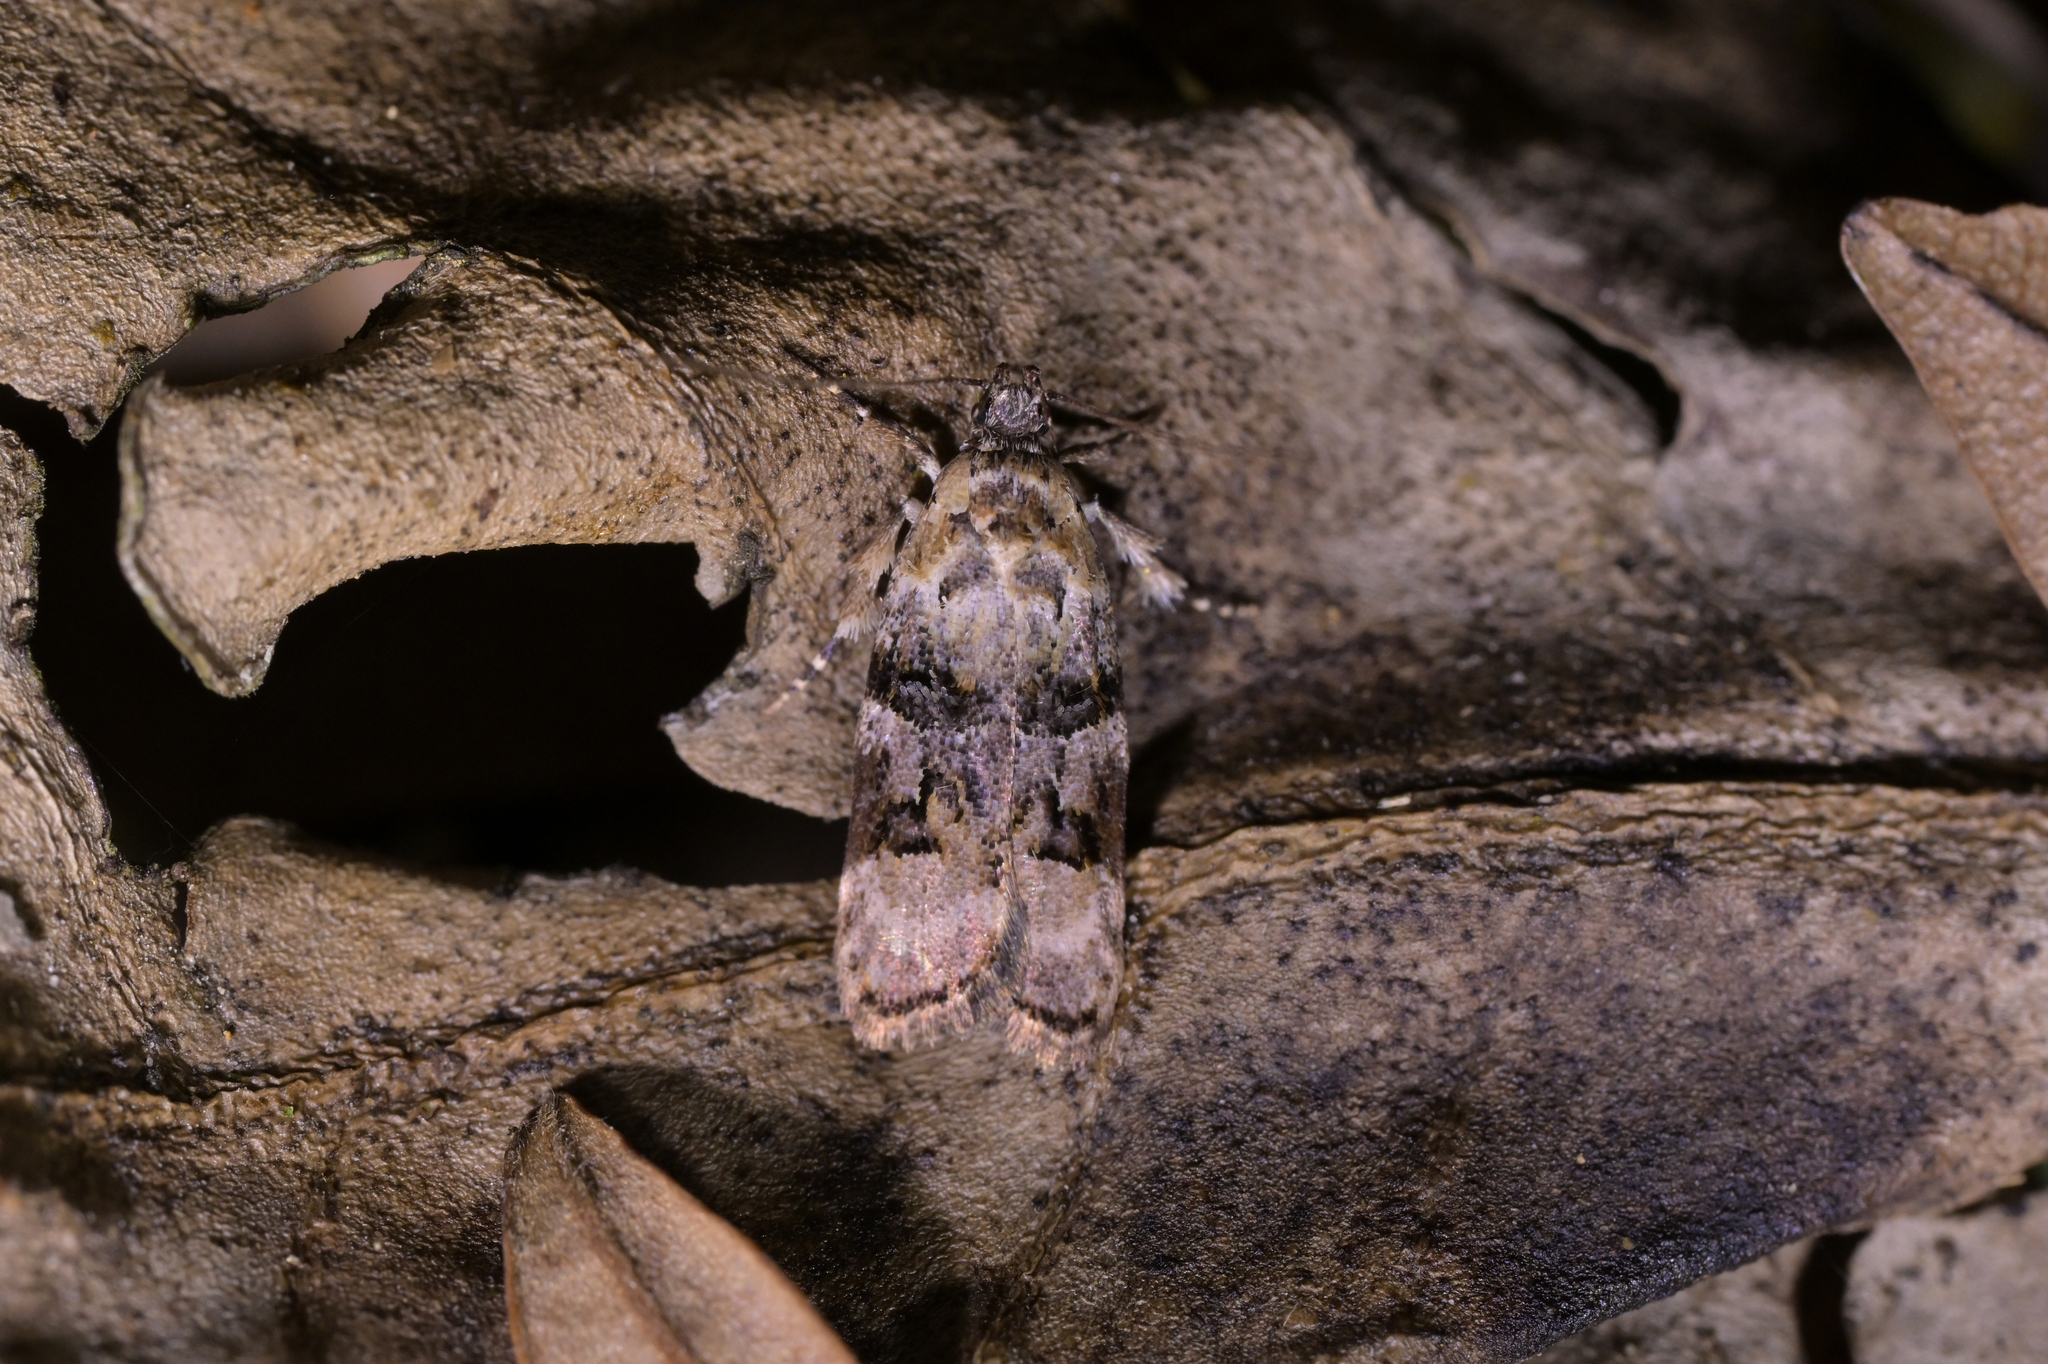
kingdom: Animalia
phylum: Arthropoda
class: Insecta
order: Lepidoptera
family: Oecophoridae
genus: Izatha
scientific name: Izatha metadelta
